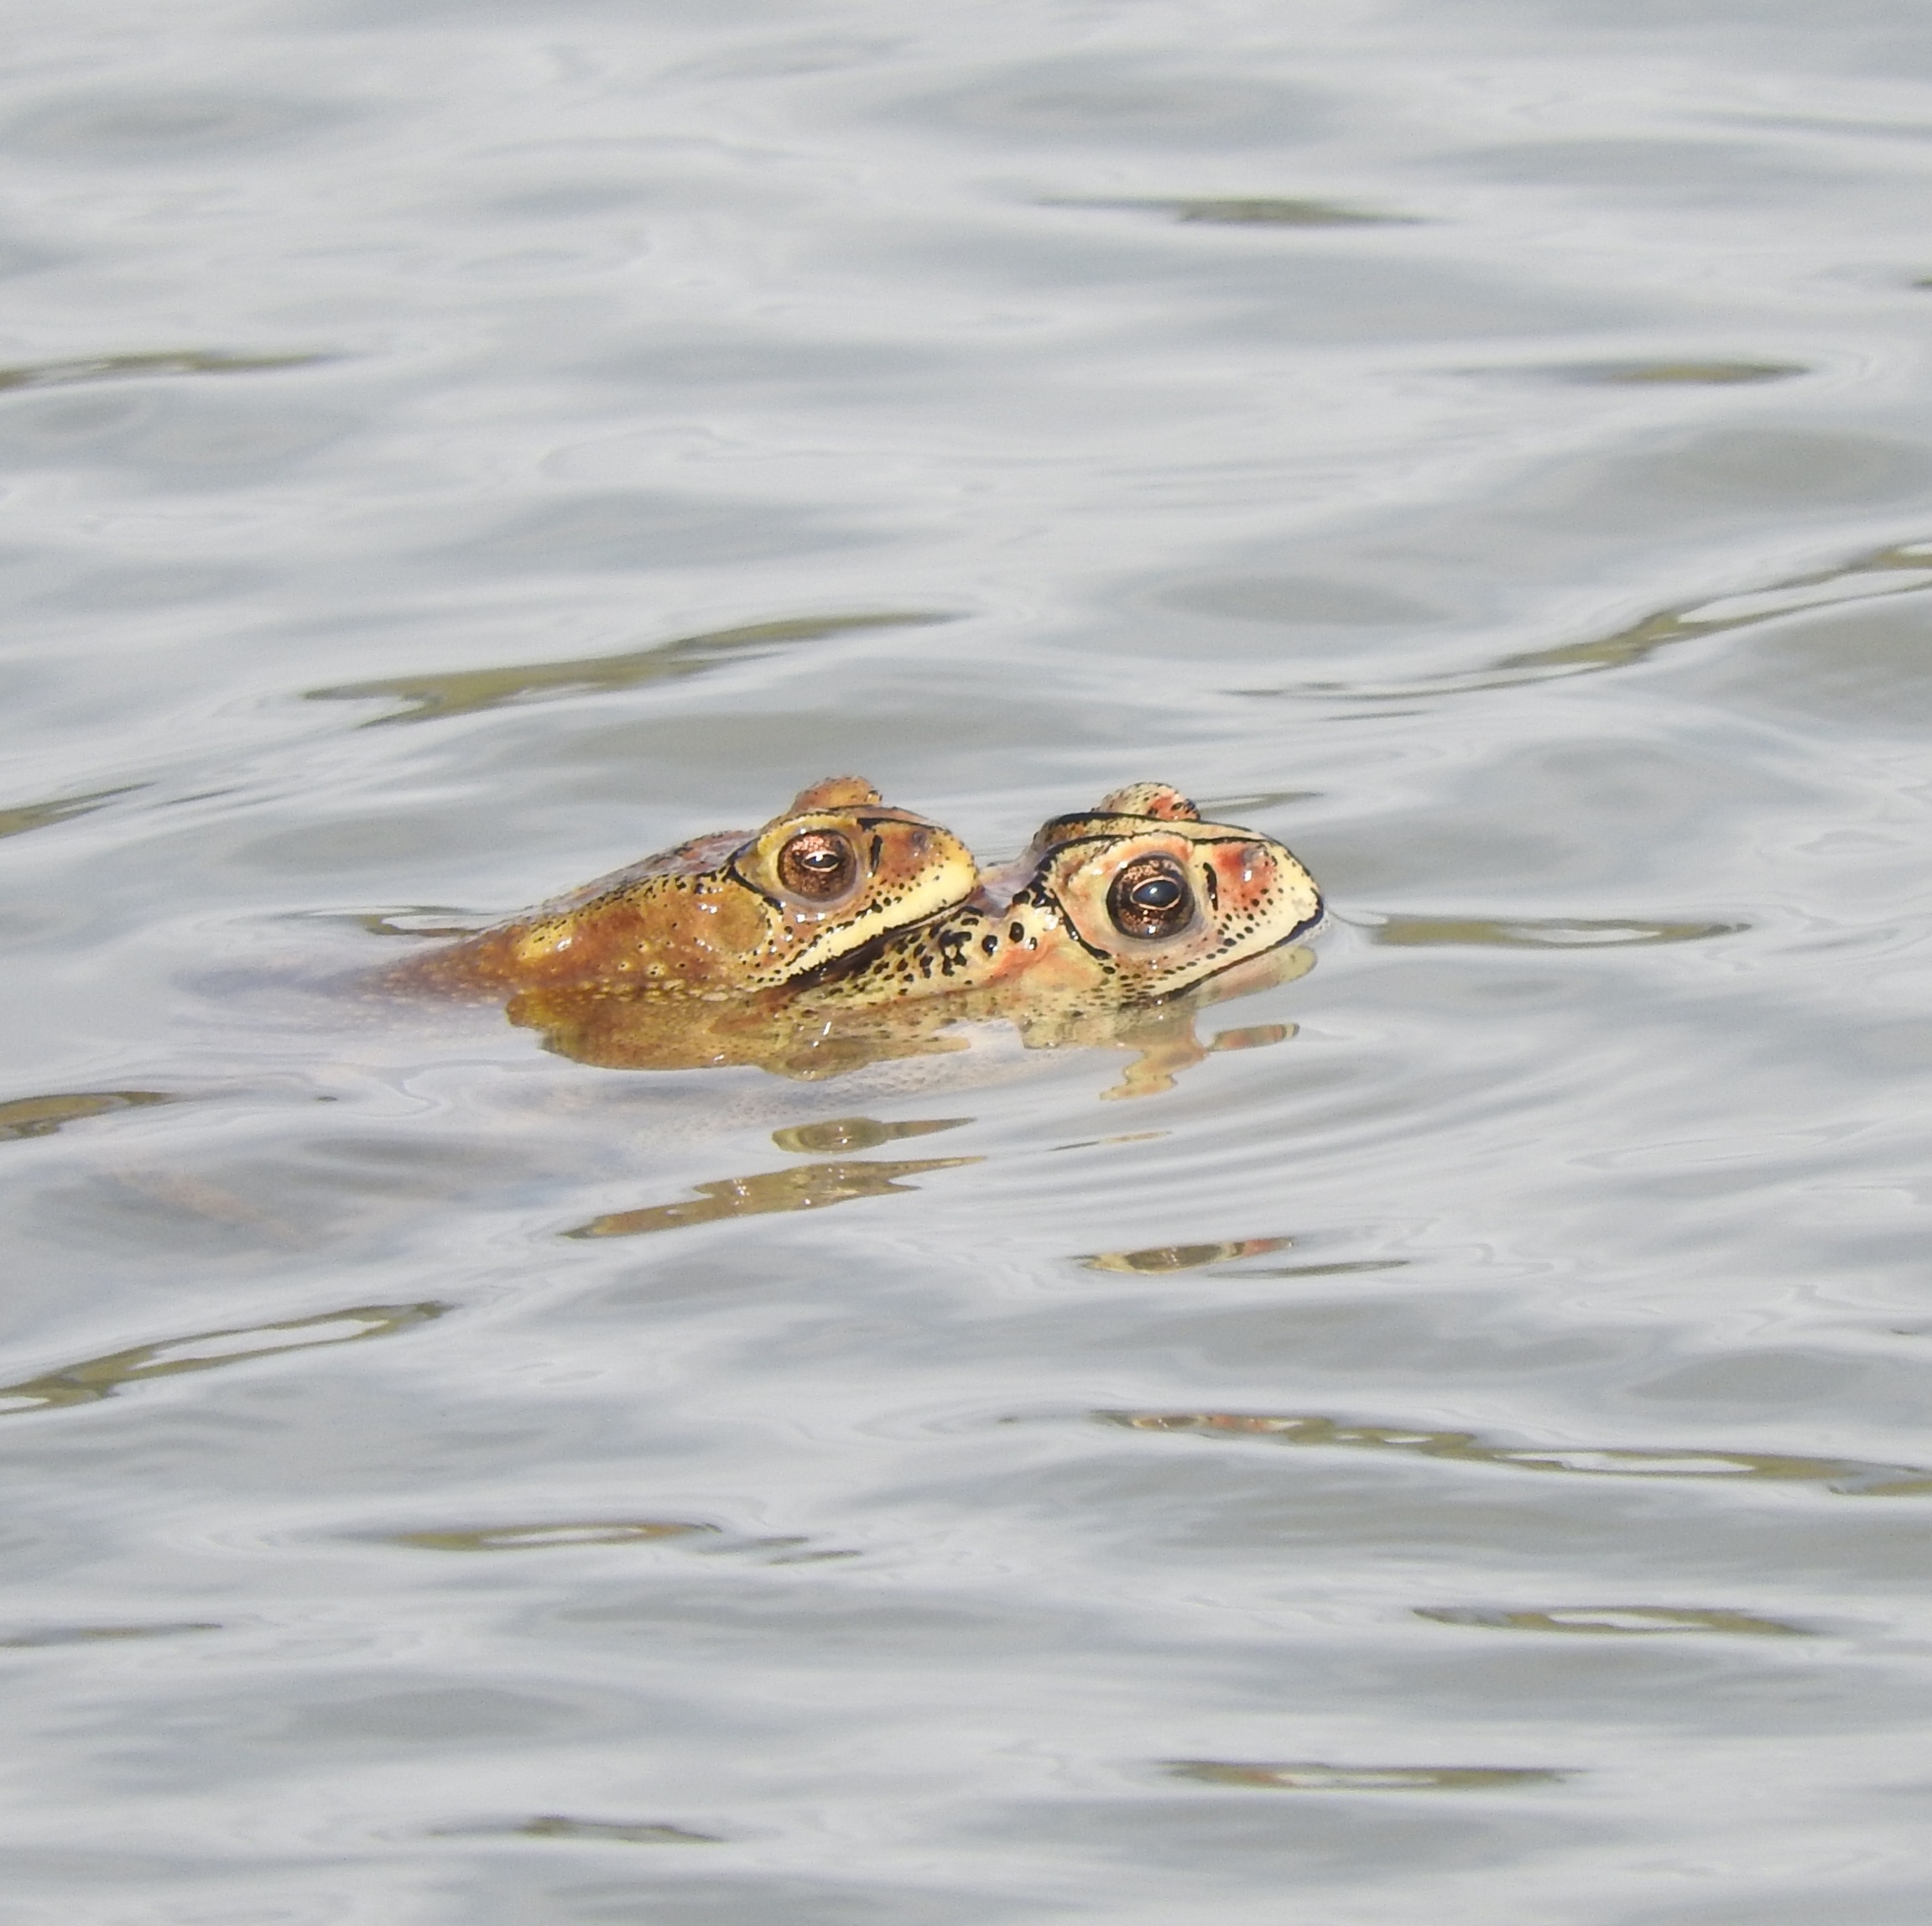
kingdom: Animalia
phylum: Chordata
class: Amphibia
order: Anura
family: Bufonidae
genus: Duttaphrynus
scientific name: Duttaphrynus melanostictus
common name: Common sunda toad
